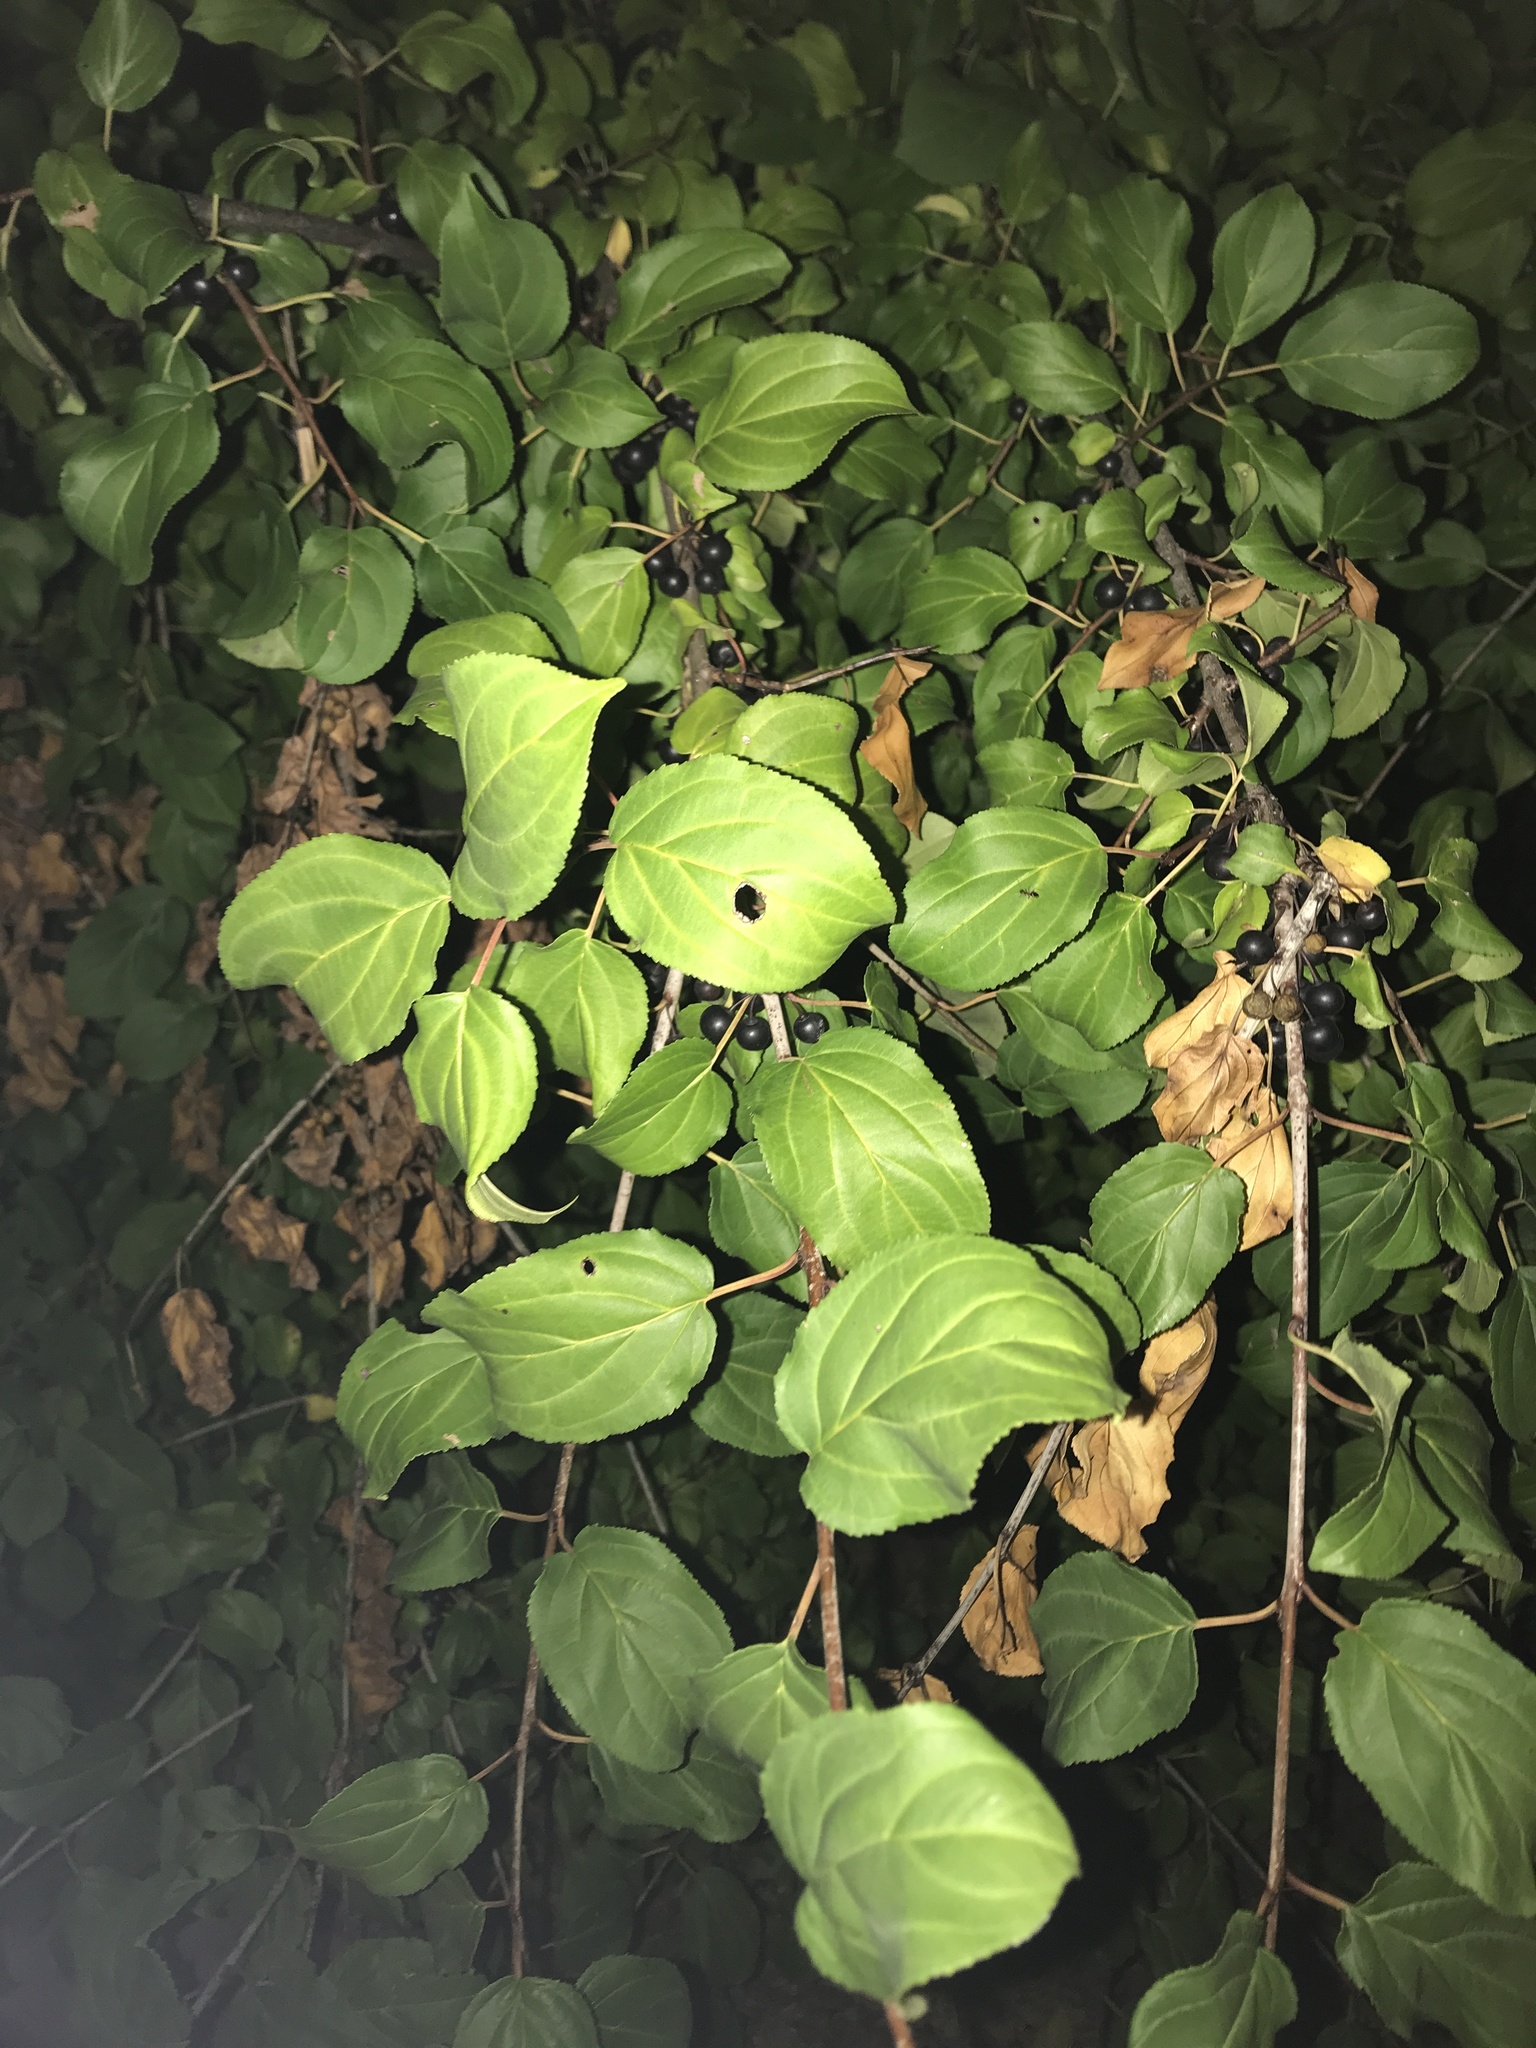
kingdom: Plantae
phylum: Tracheophyta
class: Magnoliopsida
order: Rosales
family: Rhamnaceae
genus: Rhamnus
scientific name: Rhamnus cathartica
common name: Common buckthorn
